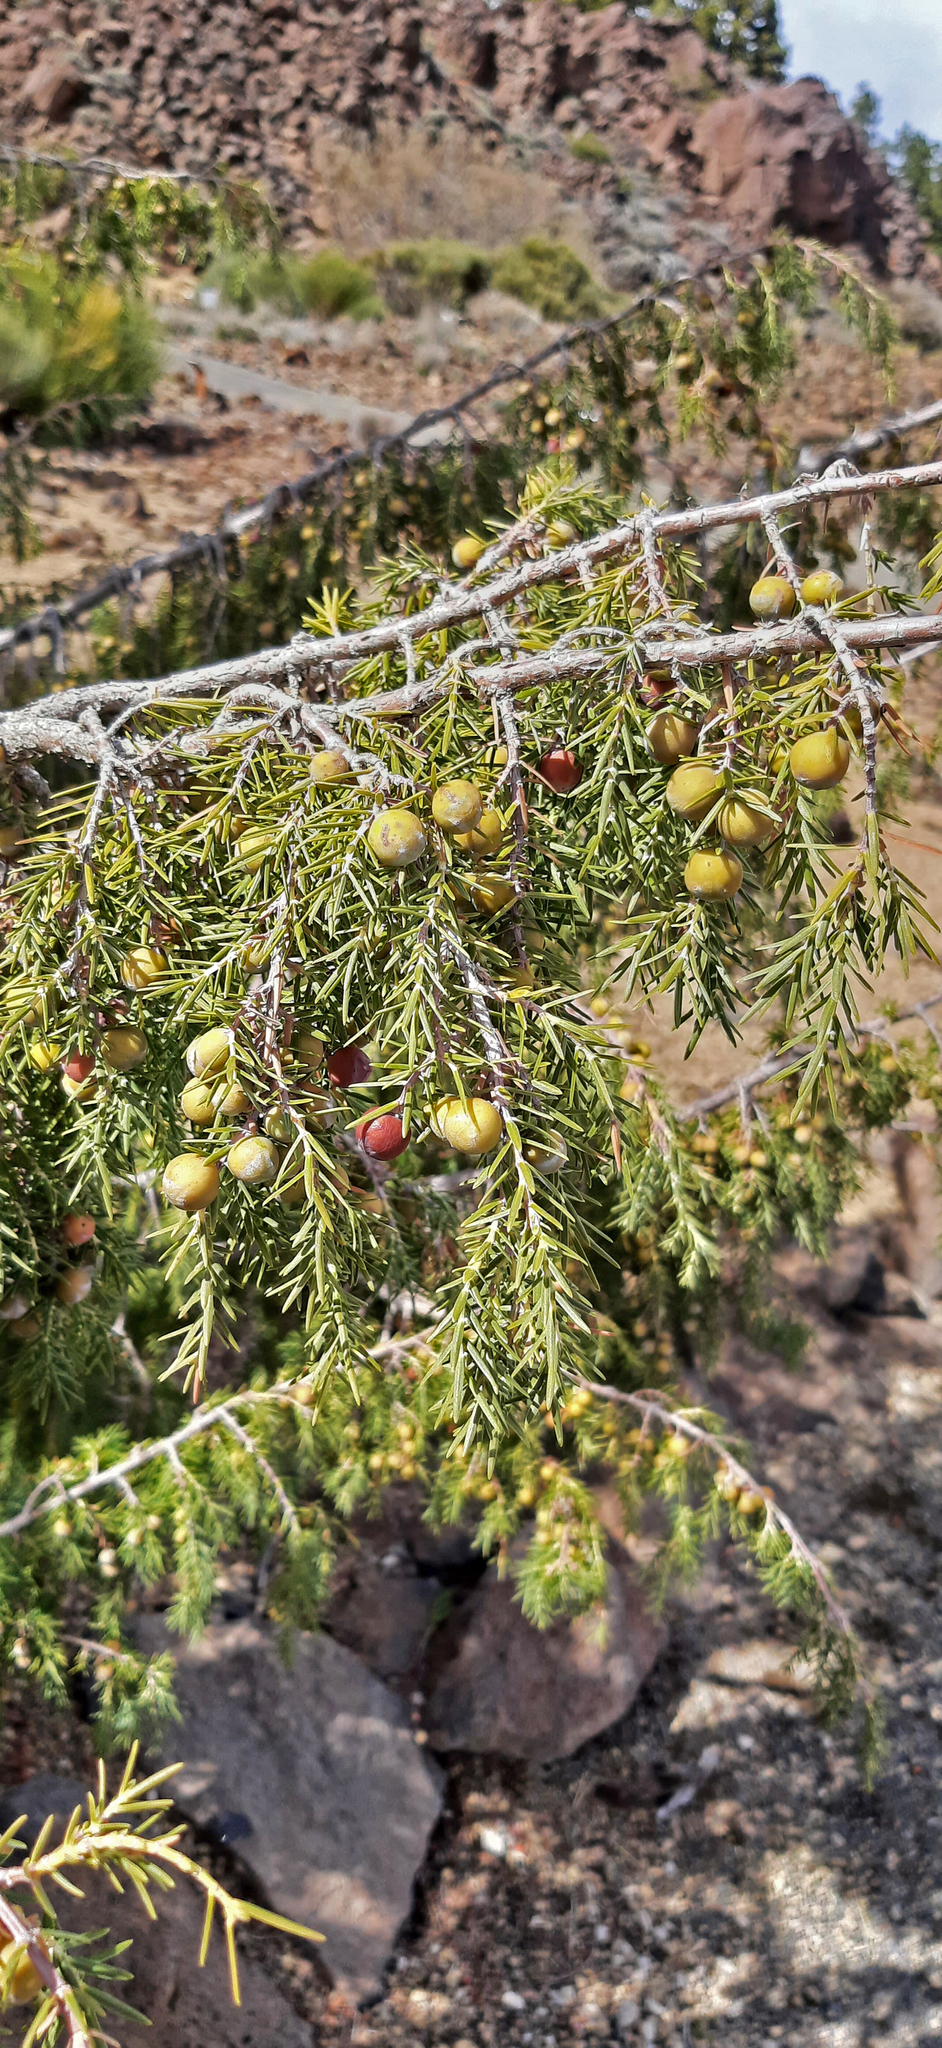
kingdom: Plantae
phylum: Tracheophyta
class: Pinopsida
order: Pinales
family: Cupressaceae
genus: Juniperus
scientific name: Juniperus cedrus
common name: Canary islands juniper
